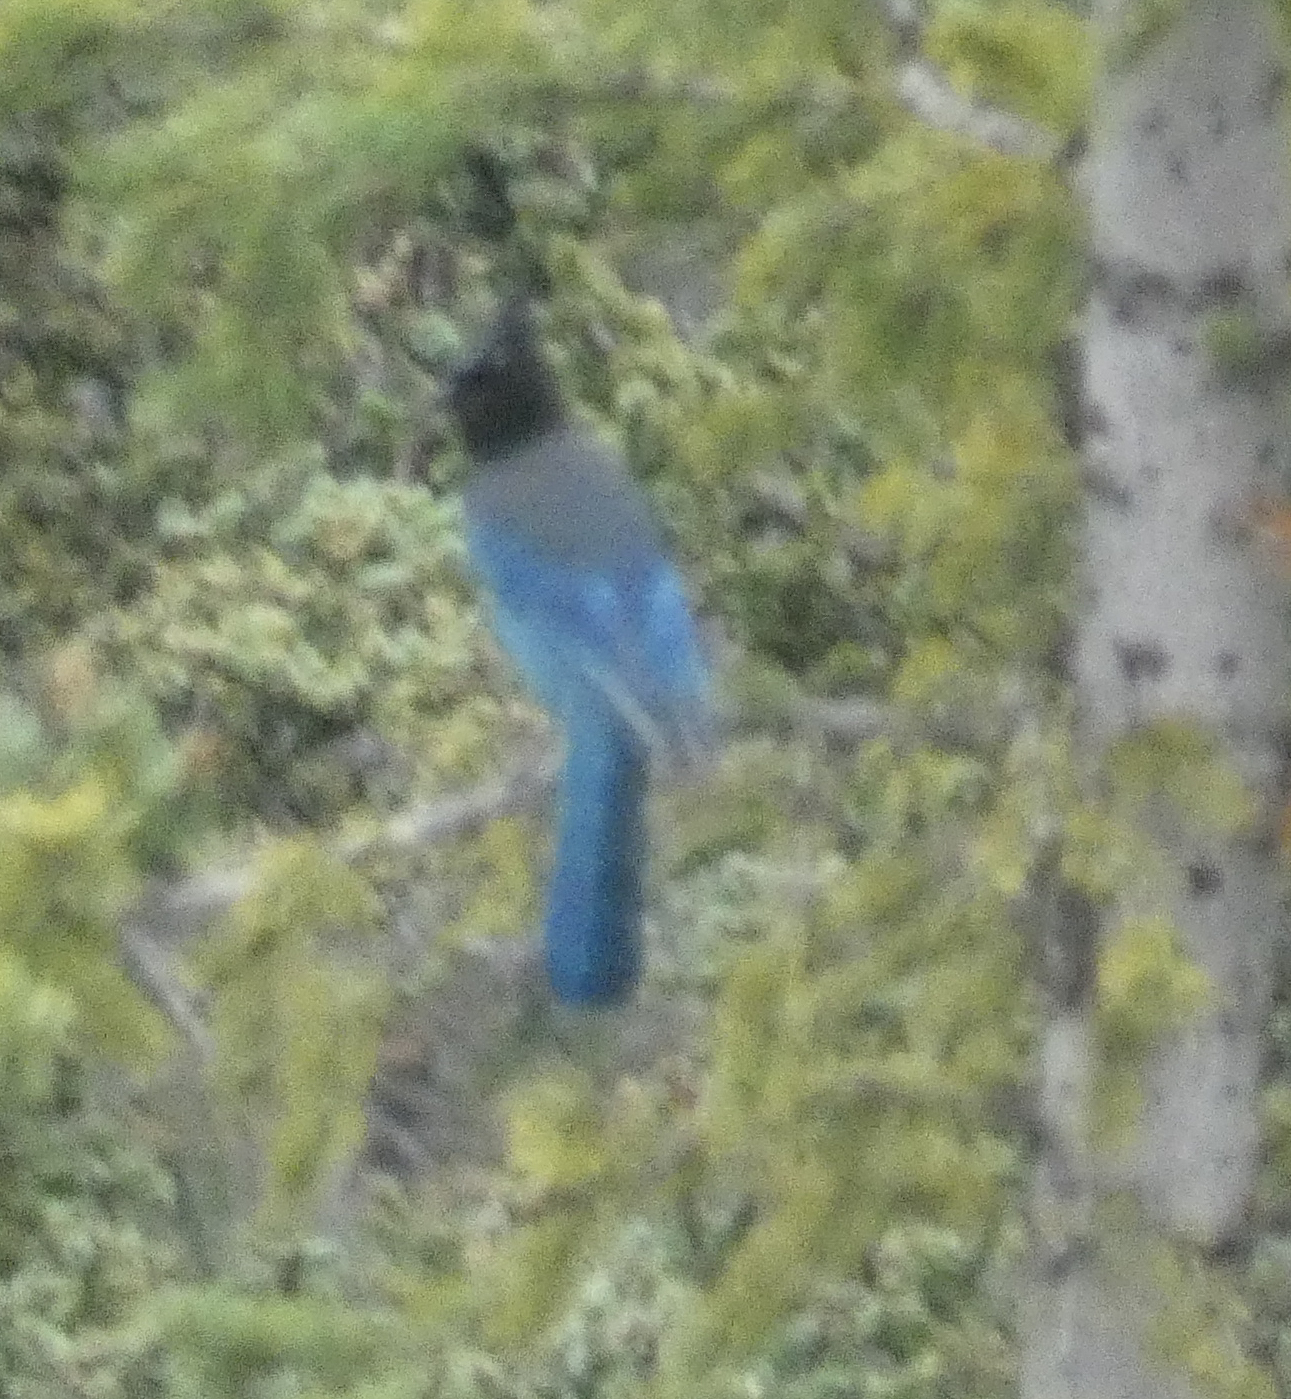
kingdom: Animalia
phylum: Chordata
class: Aves
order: Passeriformes
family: Corvidae
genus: Cyanocitta
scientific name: Cyanocitta stelleri
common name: Steller's jay
